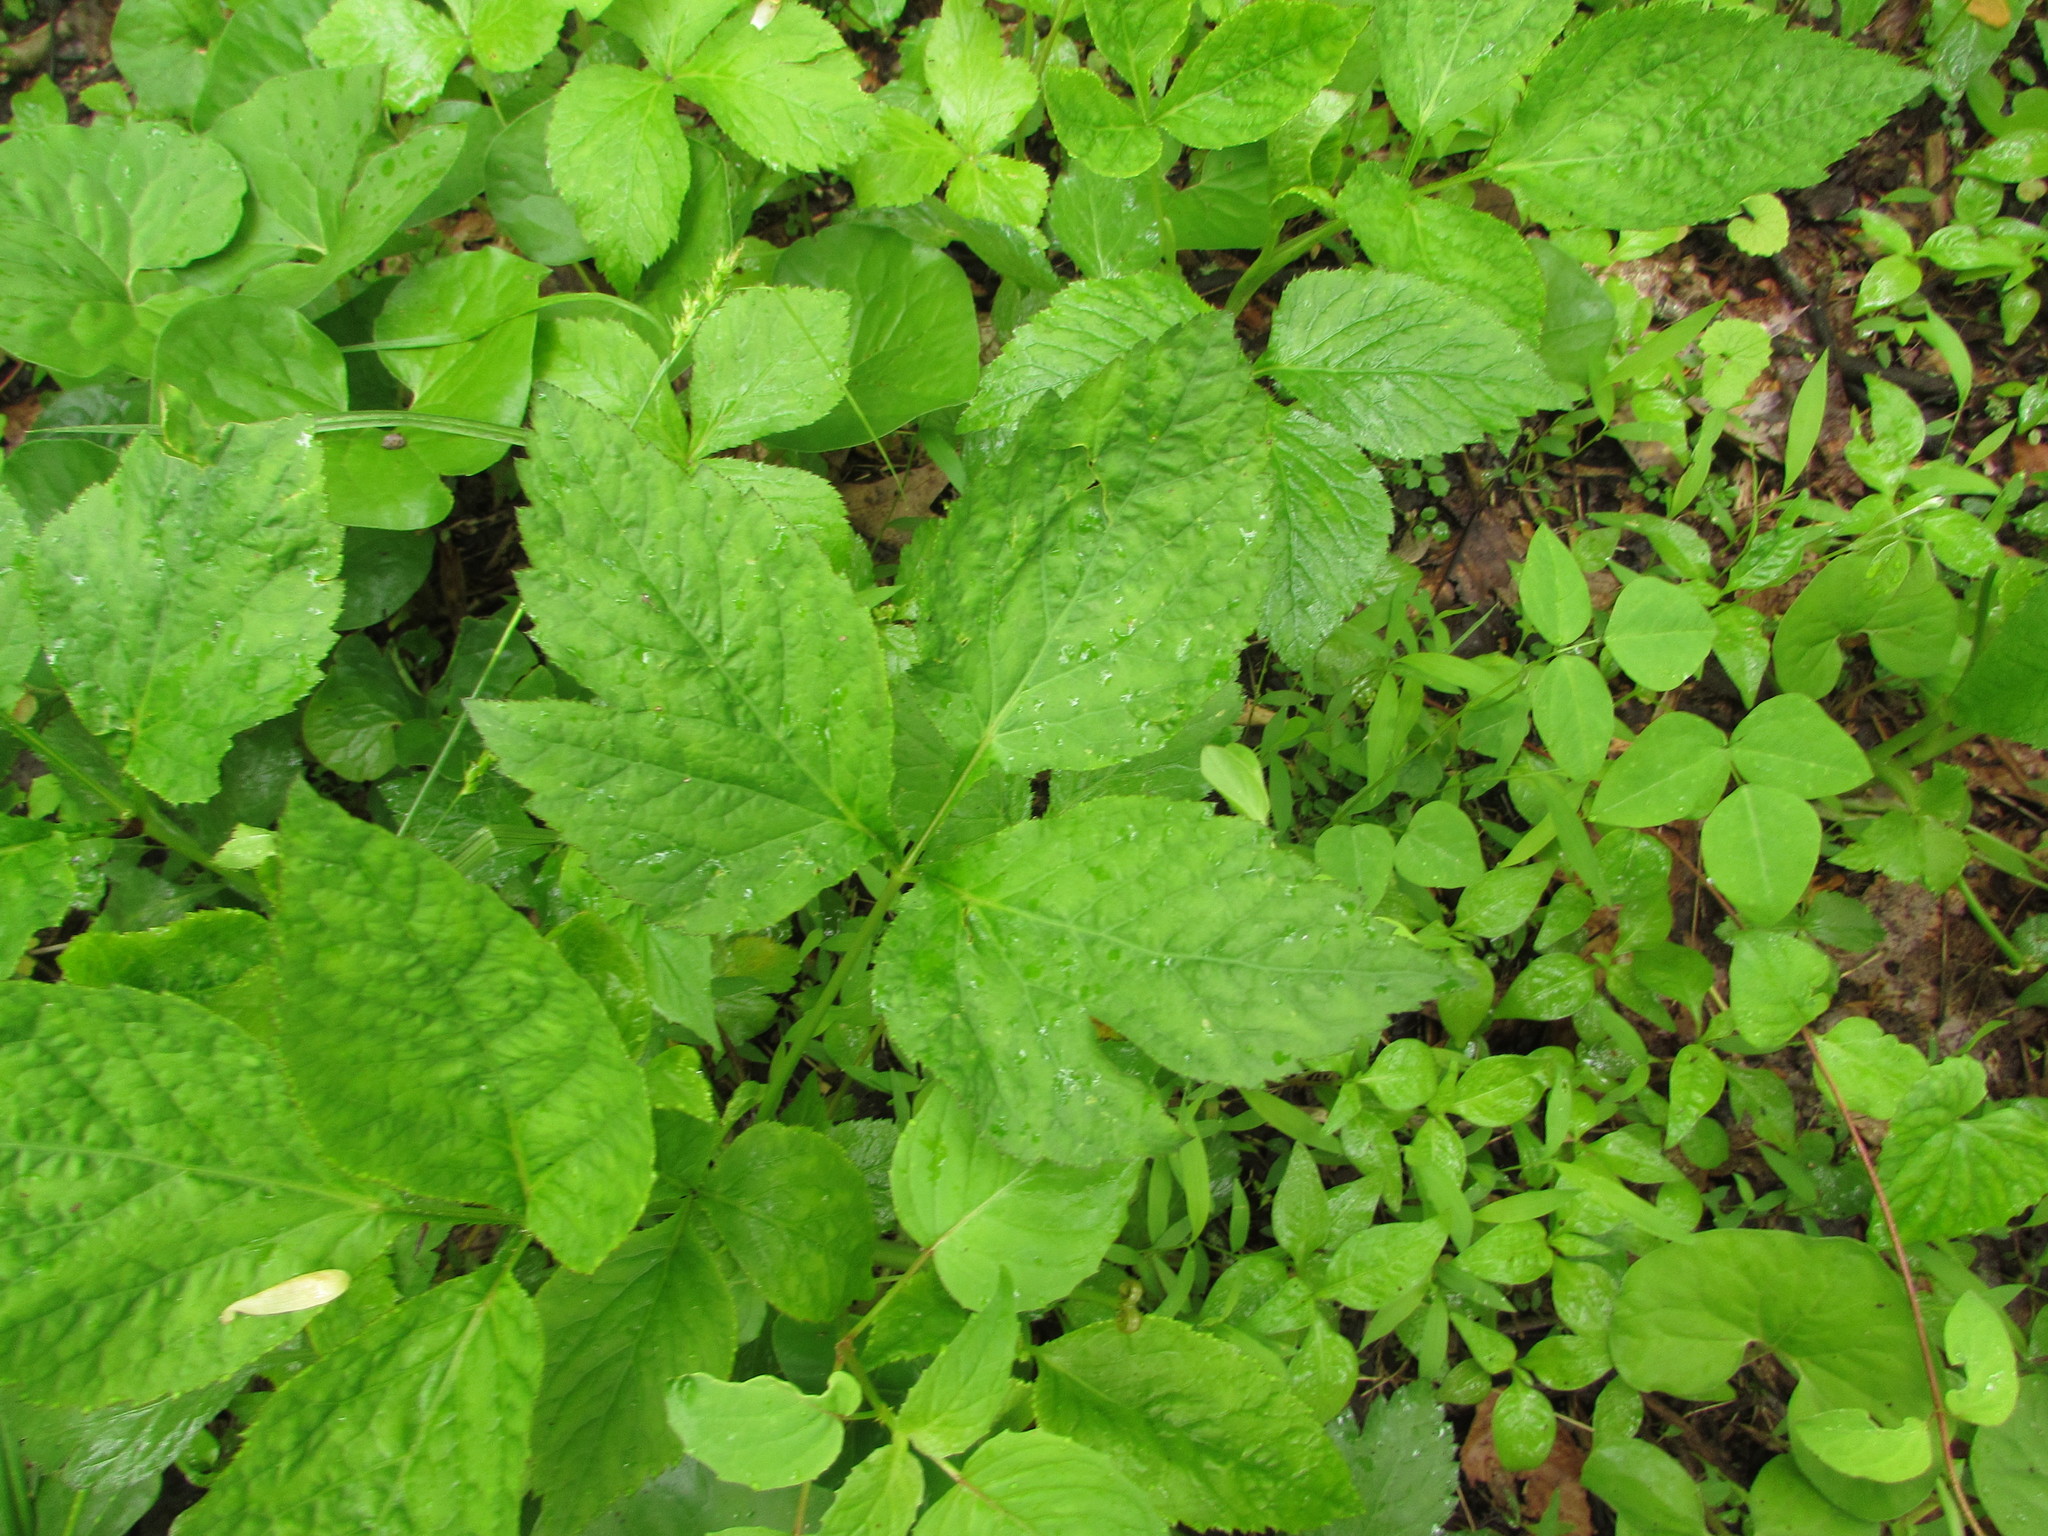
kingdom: Plantae
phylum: Tracheophyta
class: Magnoliopsida
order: Apiales
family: Apiaceae
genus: Cryptotaenia
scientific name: Cryptotaenia canadensis
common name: Honewort
